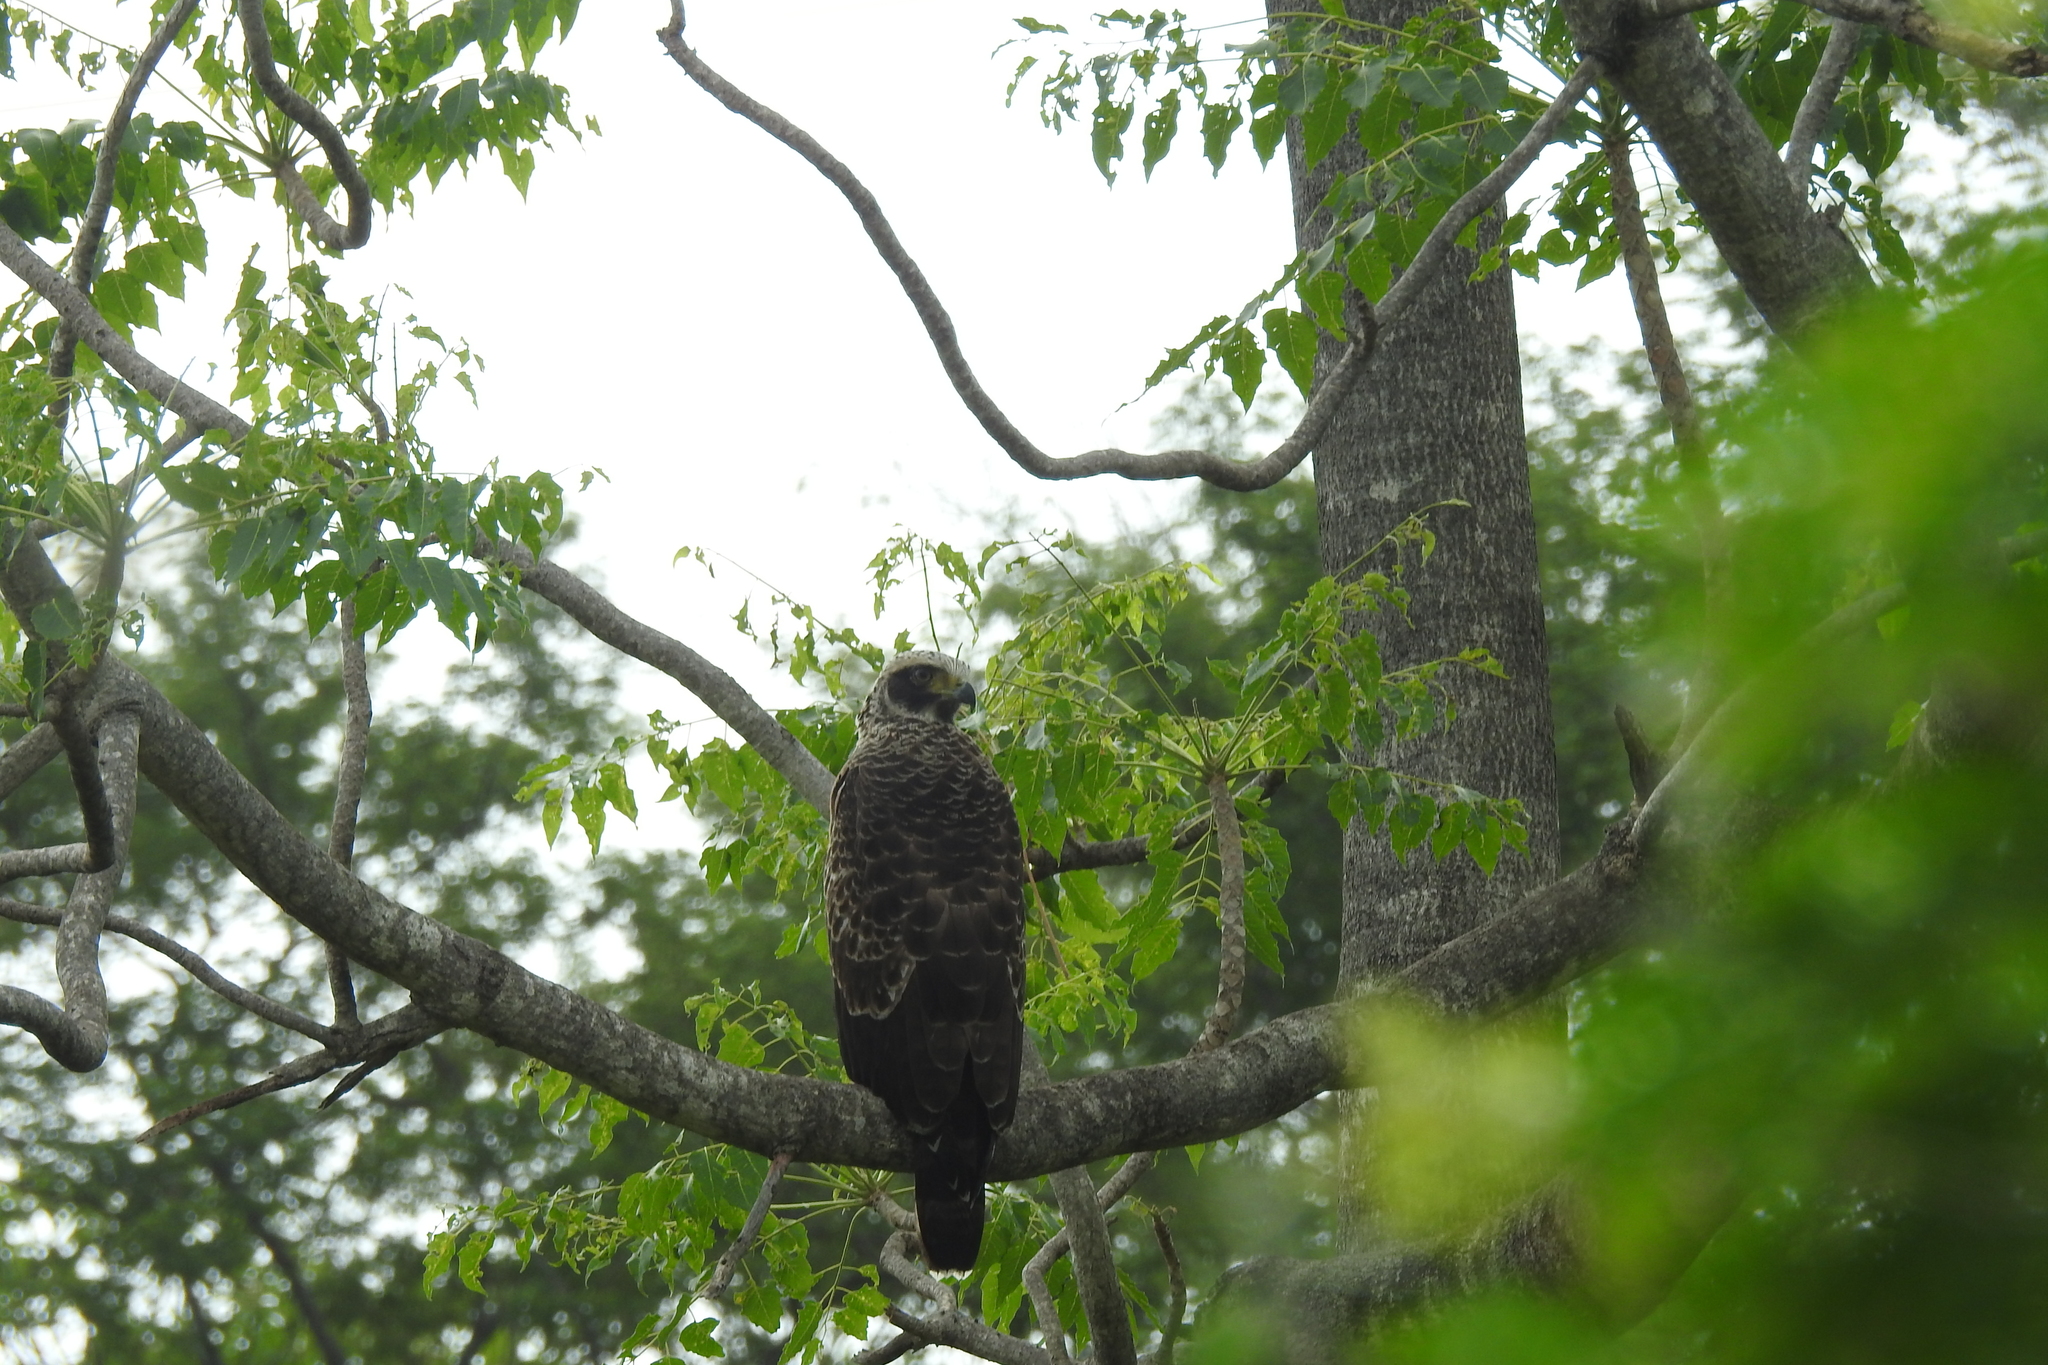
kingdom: Animalia
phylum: Chordata
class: Aves
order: Accipitriformes
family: Accipitridae
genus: Spilornis
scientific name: Spilornis cheela
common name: Crested serpent eagle
